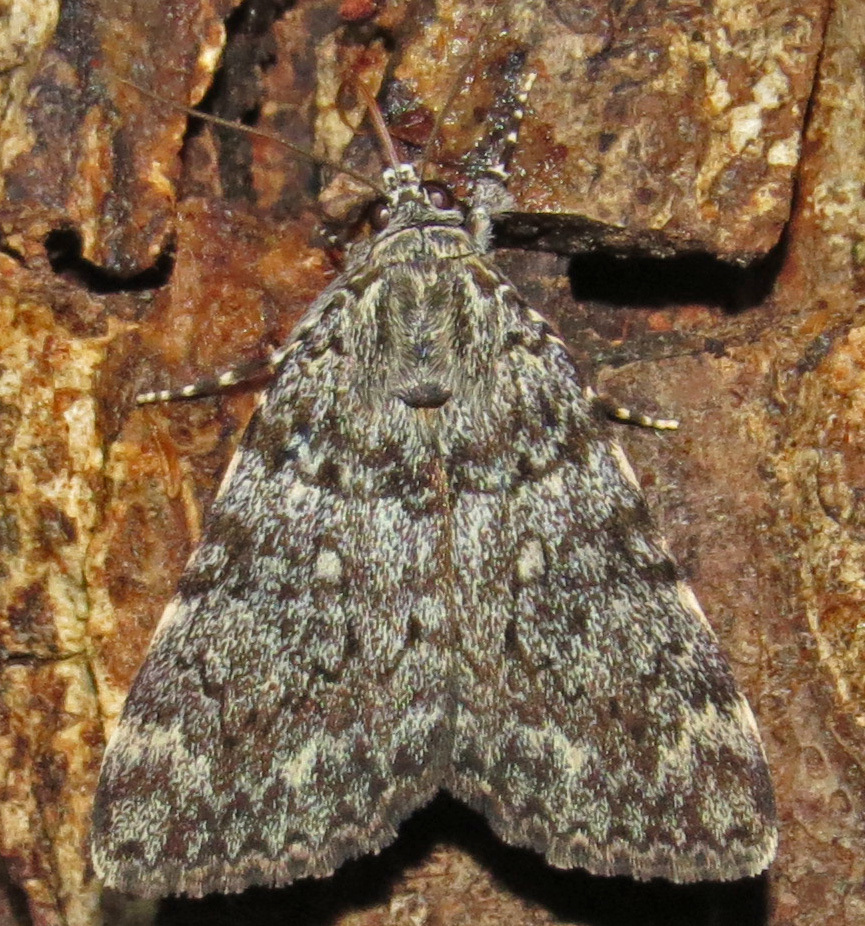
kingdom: Animalia
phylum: Arthropoda
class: Insecta
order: Lepidoptera
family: Erebidae
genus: Catocala
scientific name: Catocala lineella
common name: Little lined underwing
